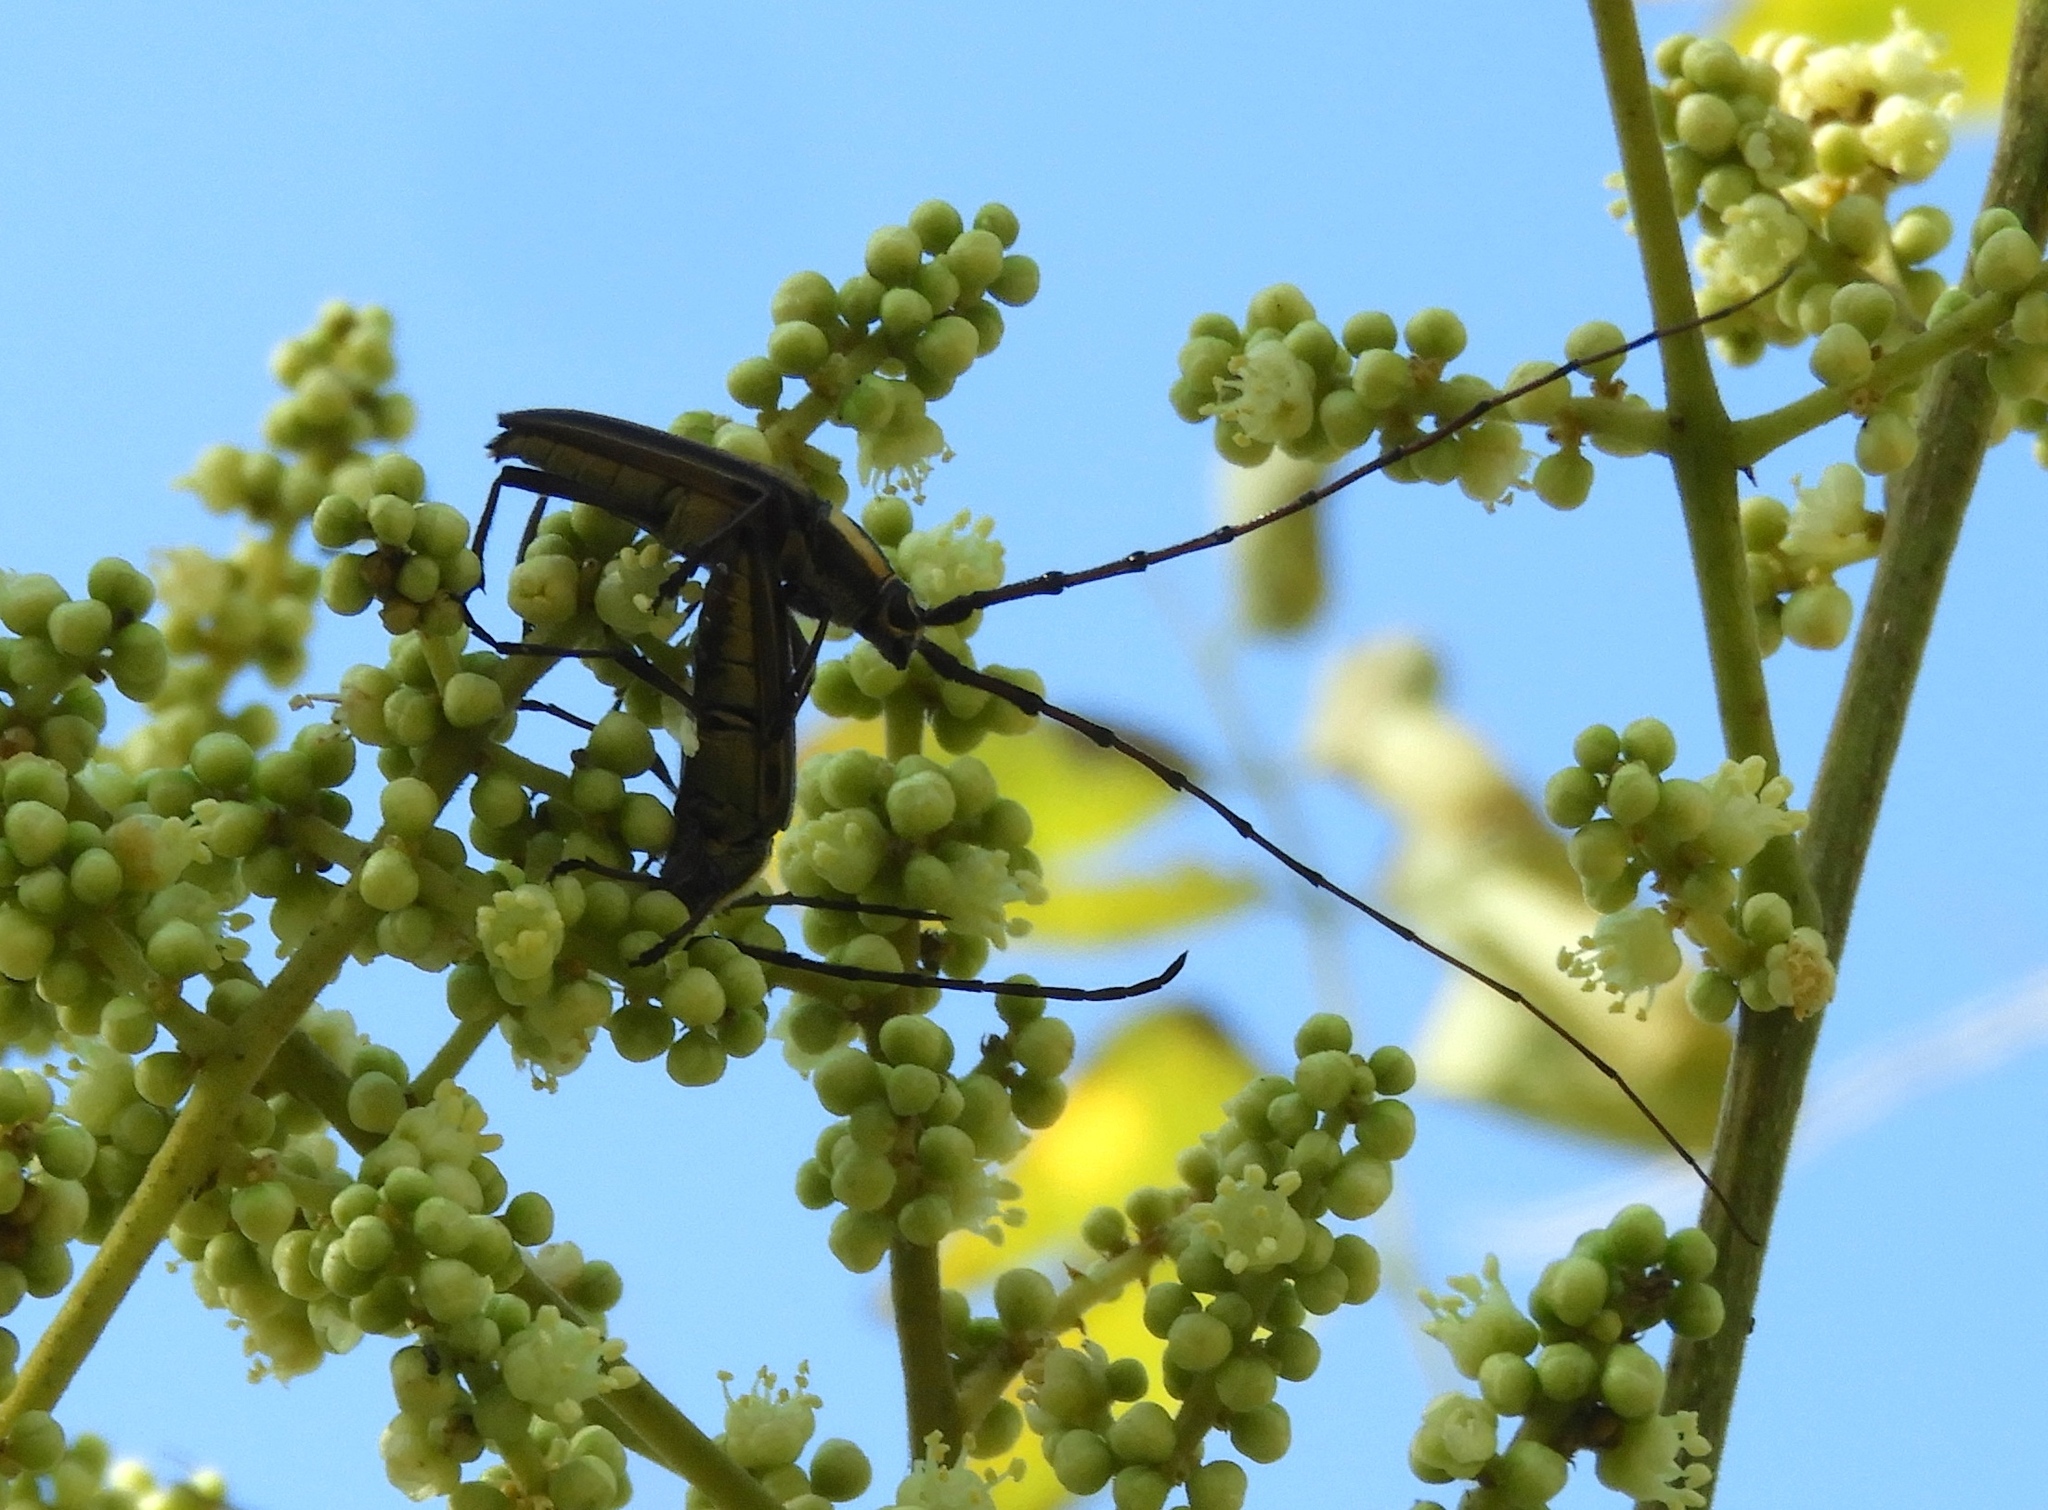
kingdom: Animalia
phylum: Arthropoda
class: Insecta
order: Coleoptera
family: Cerambycidae
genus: Sphaenothecus
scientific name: Sphaenothecus trilineatus
